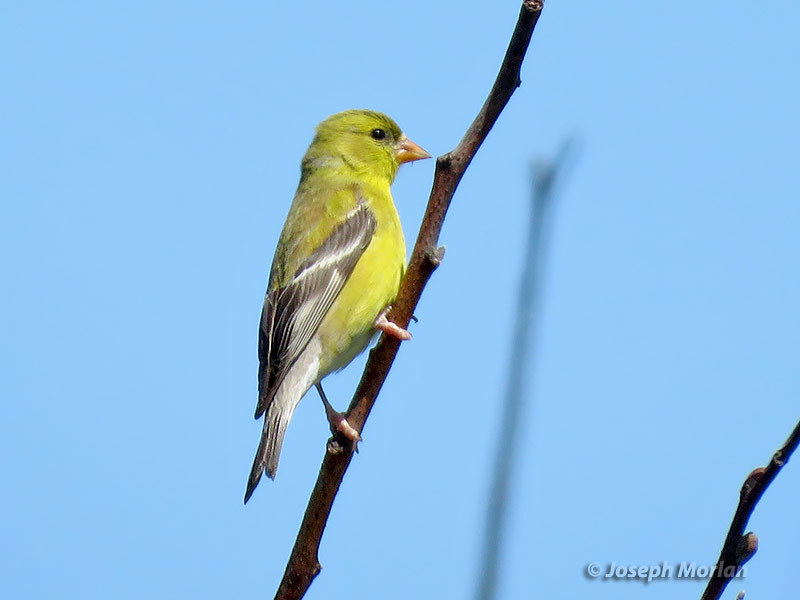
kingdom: Animalia
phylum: Chordata
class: Aves
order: Passeriformes
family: Fringillidae
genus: Spinus
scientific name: Spinus tristis
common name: American goldfinch
